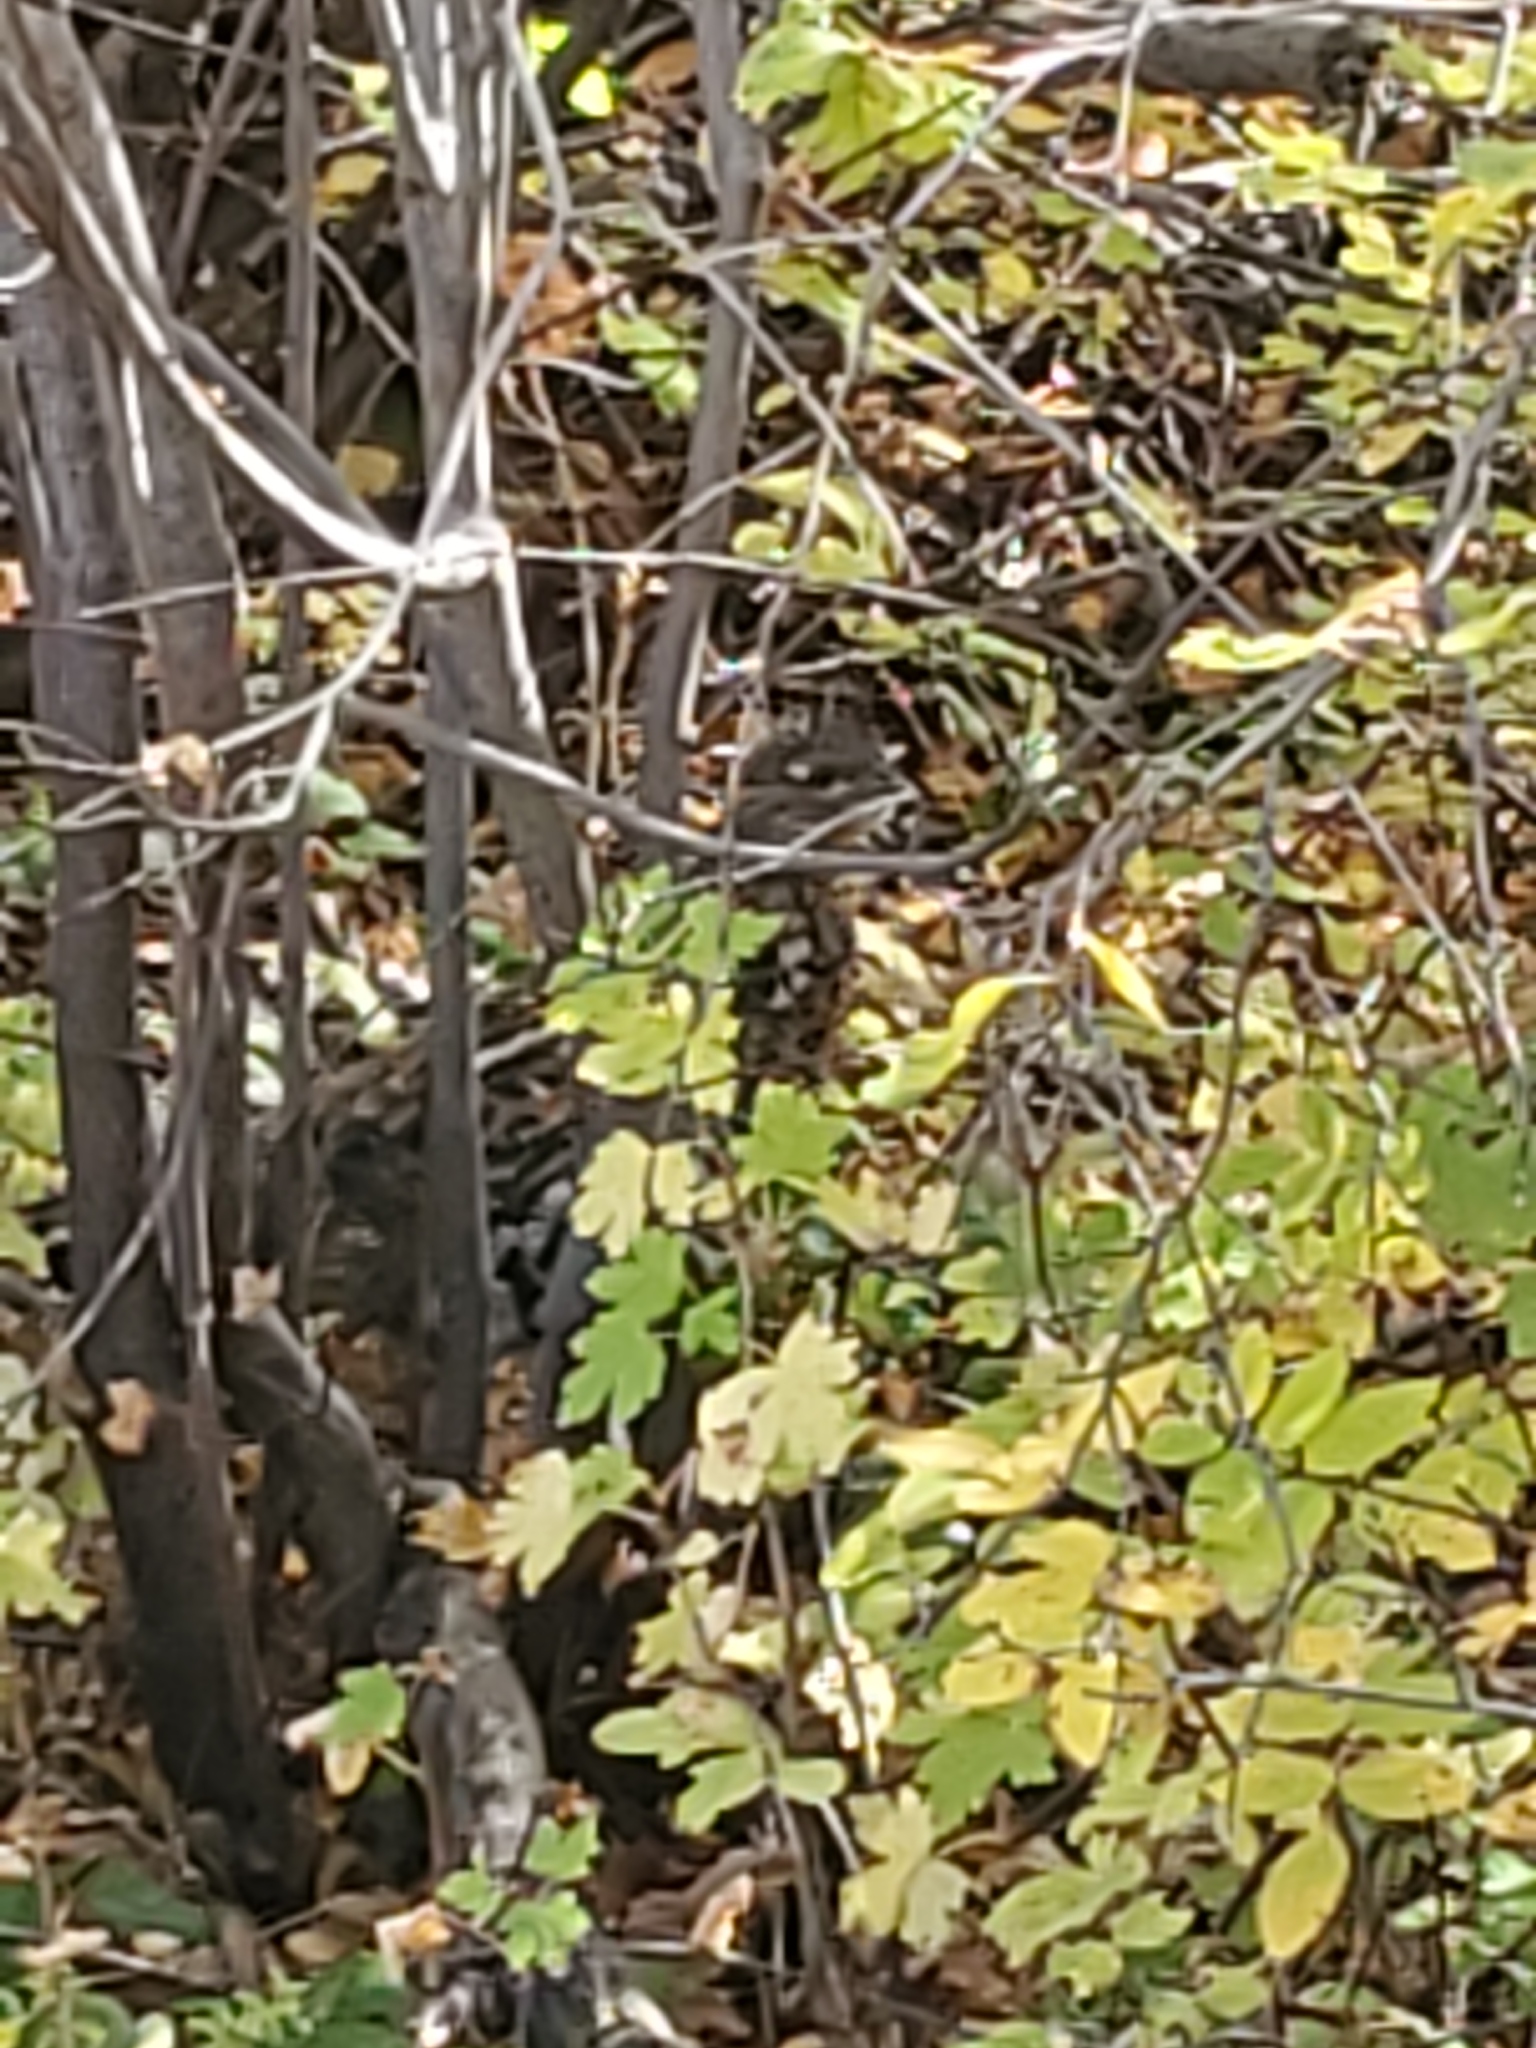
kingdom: Animalia
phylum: Chordata
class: Aves
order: Galliformes
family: Phasianidae
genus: Bonasa
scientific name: Bonasa umbellus
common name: Ruffed grouse
